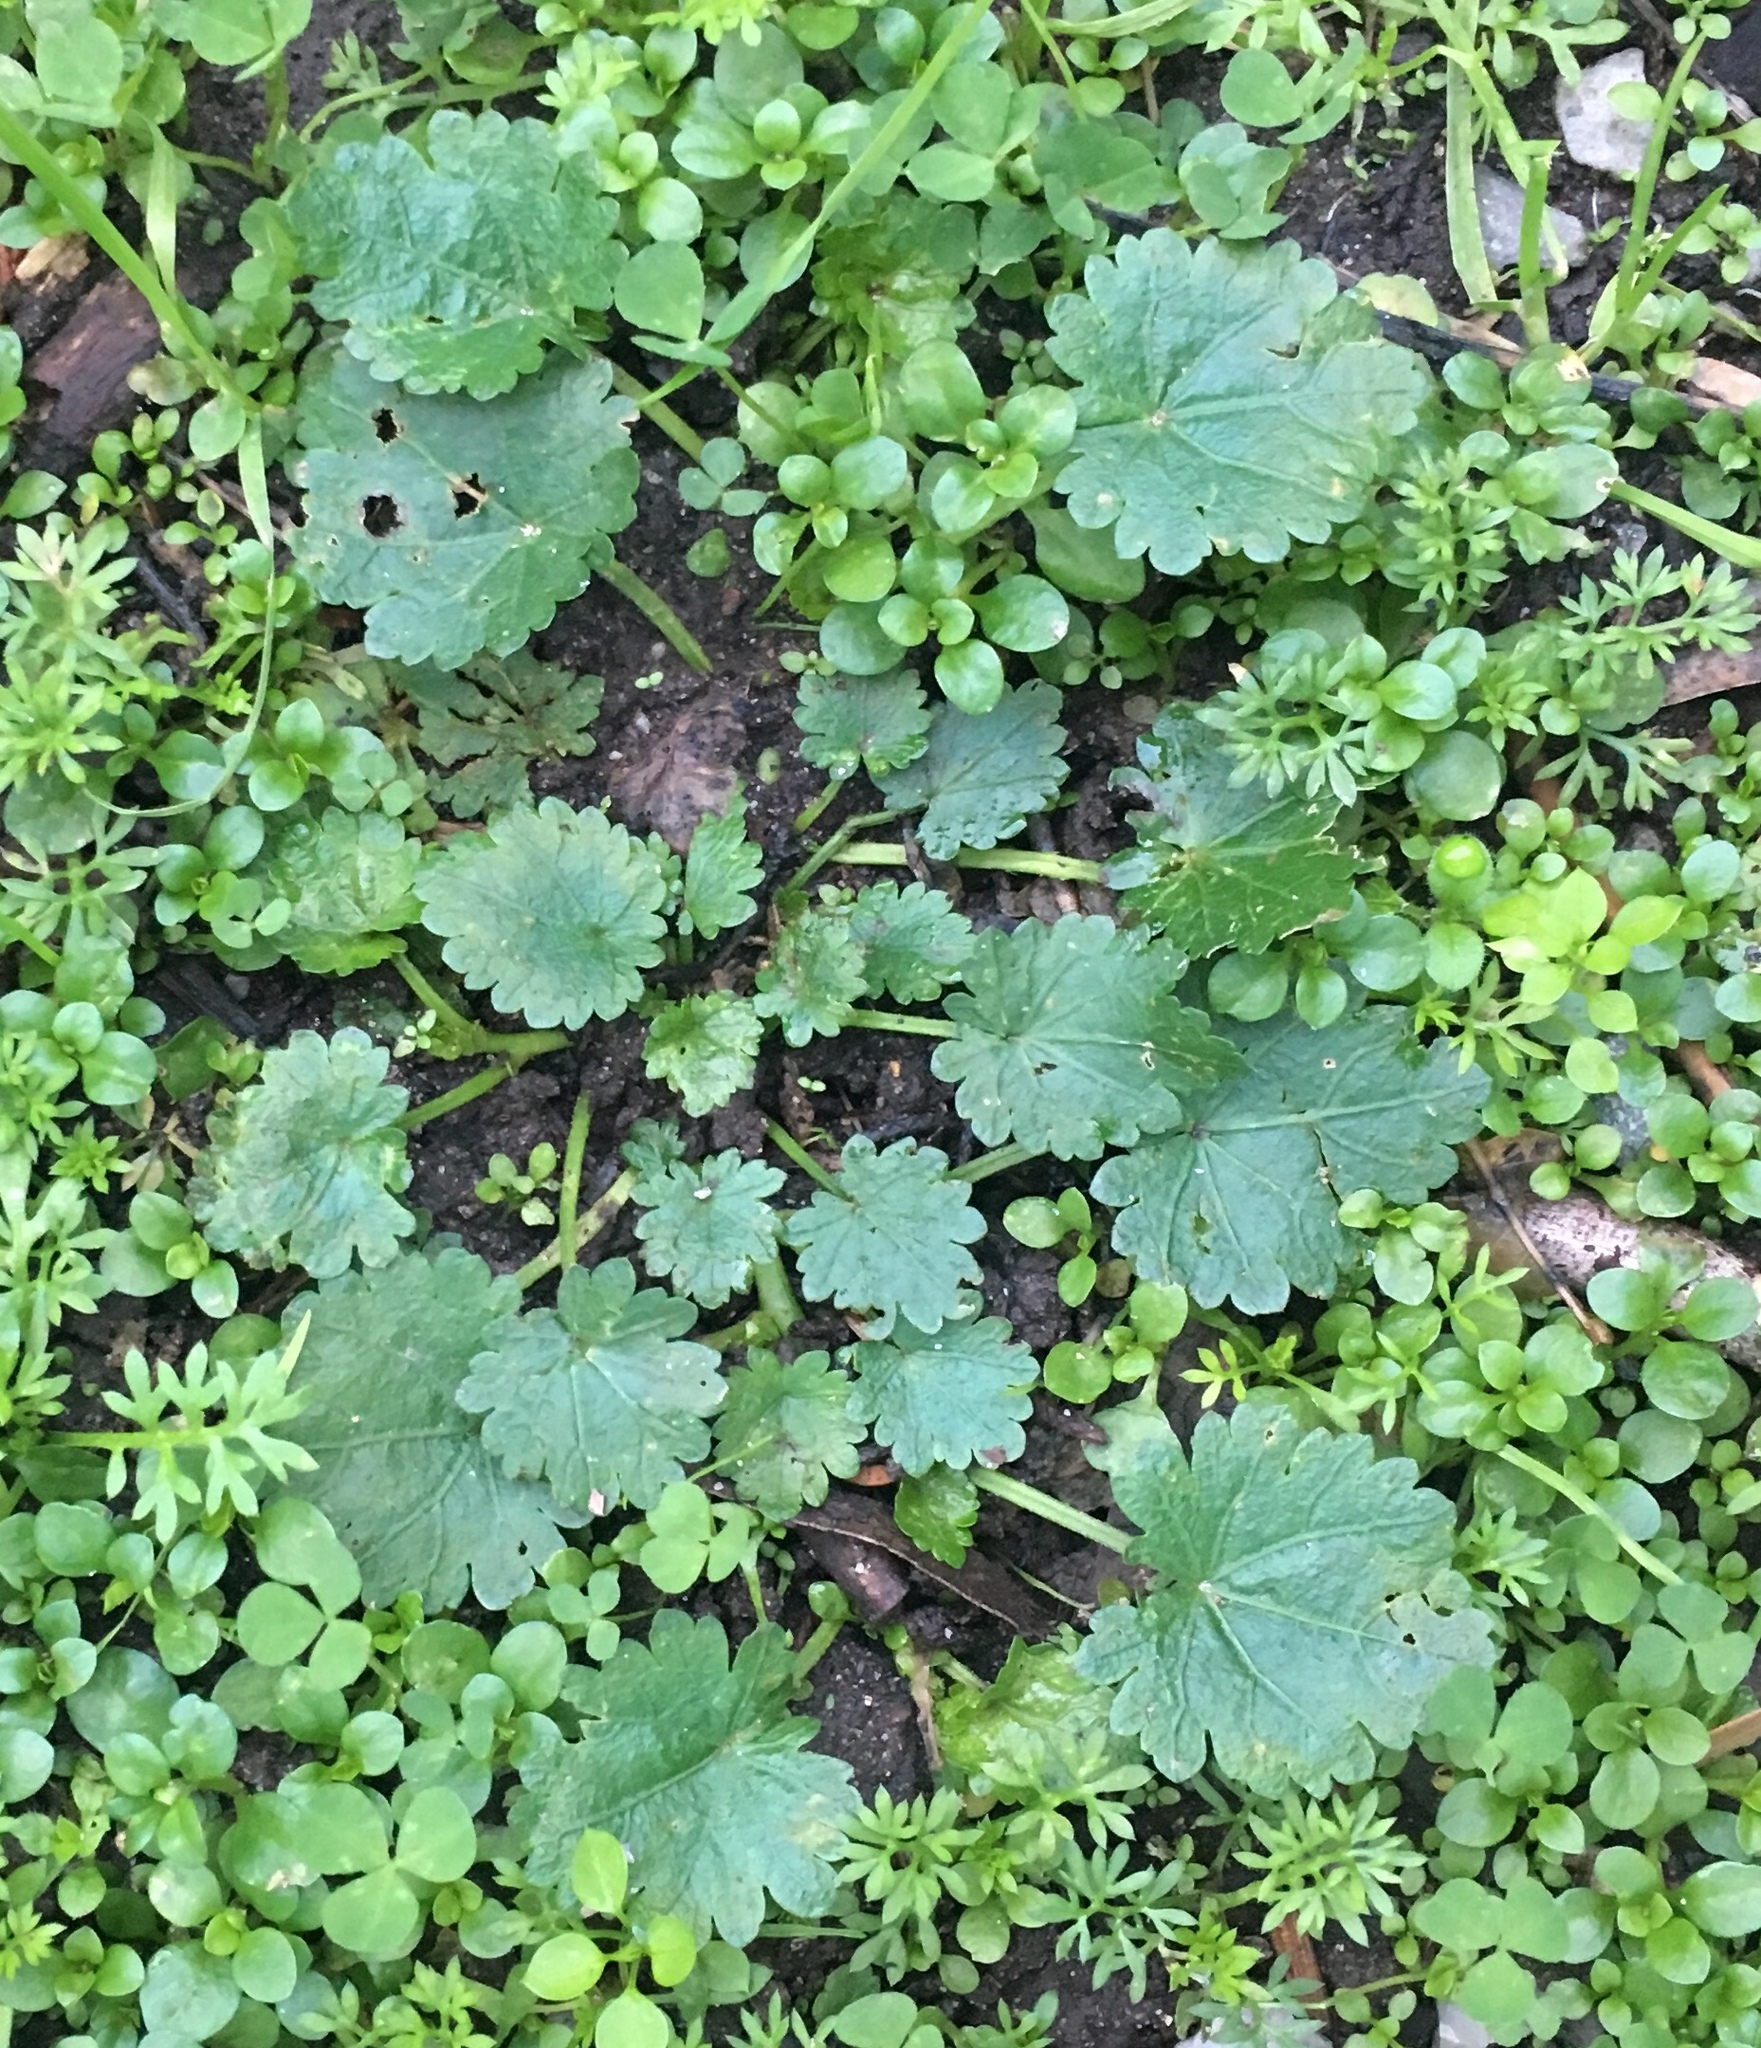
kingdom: Plantae
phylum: Tracheophyta
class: Magnoliopsida
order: Malvales
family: Malvaceae
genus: Modiola
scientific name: Modiola caroliniana
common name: Carolina bristlemallow
